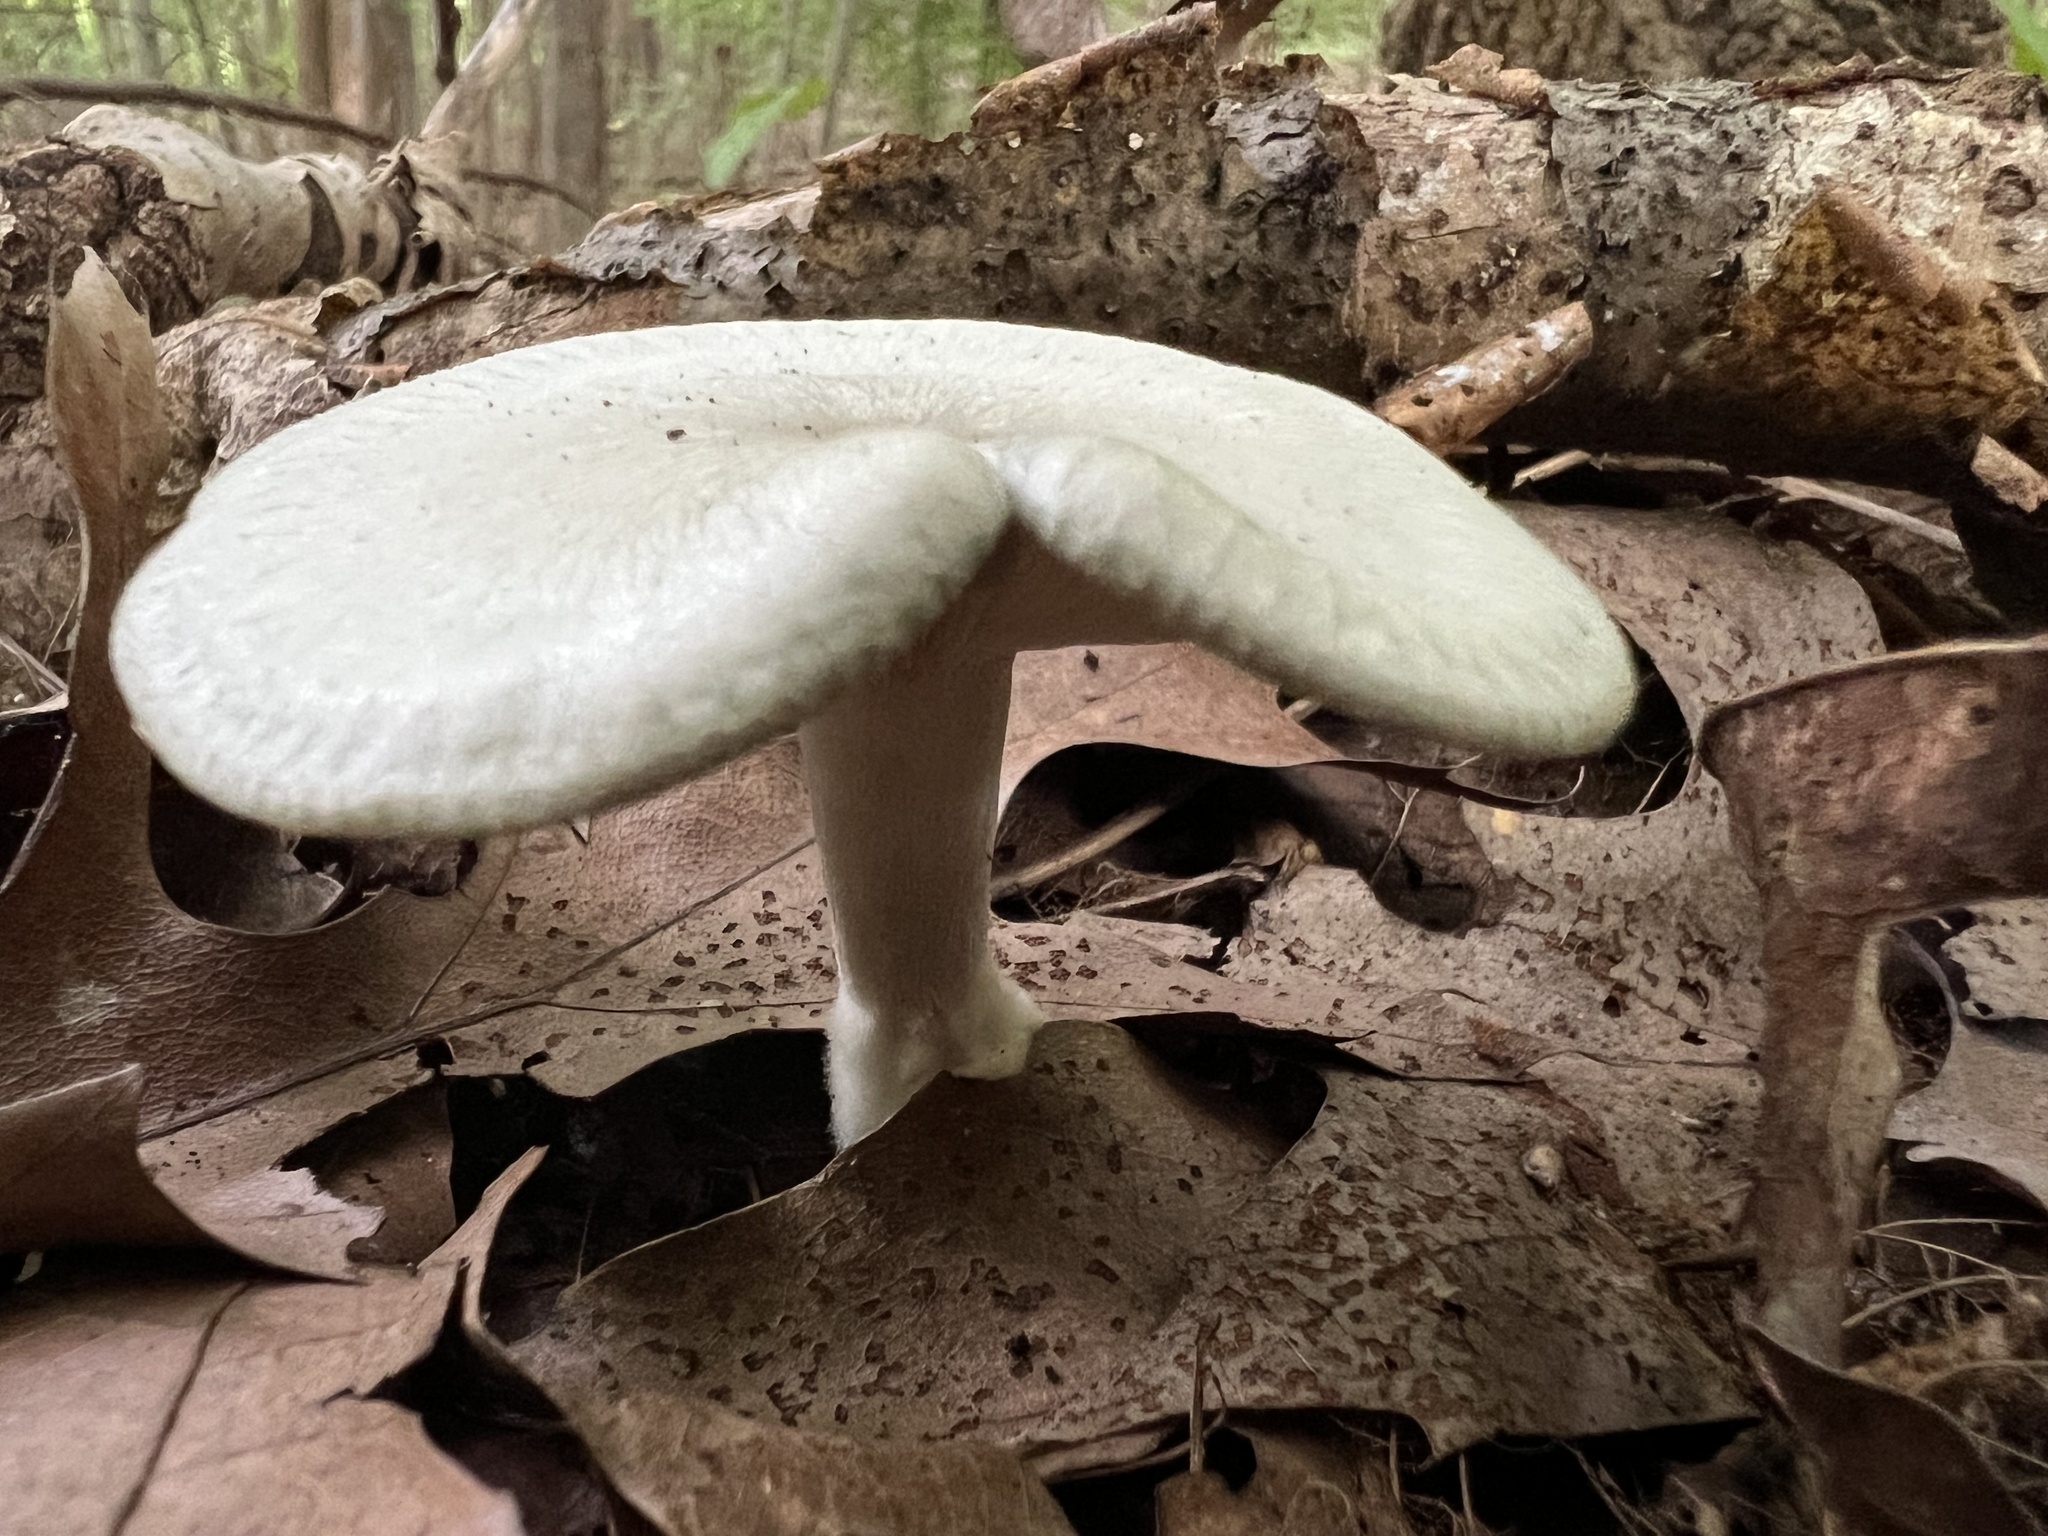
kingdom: Fungi
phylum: Basidiomycota
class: Agaricomycetes
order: Agaricales
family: Tricholomataceae
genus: Collybia
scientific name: Collybia
